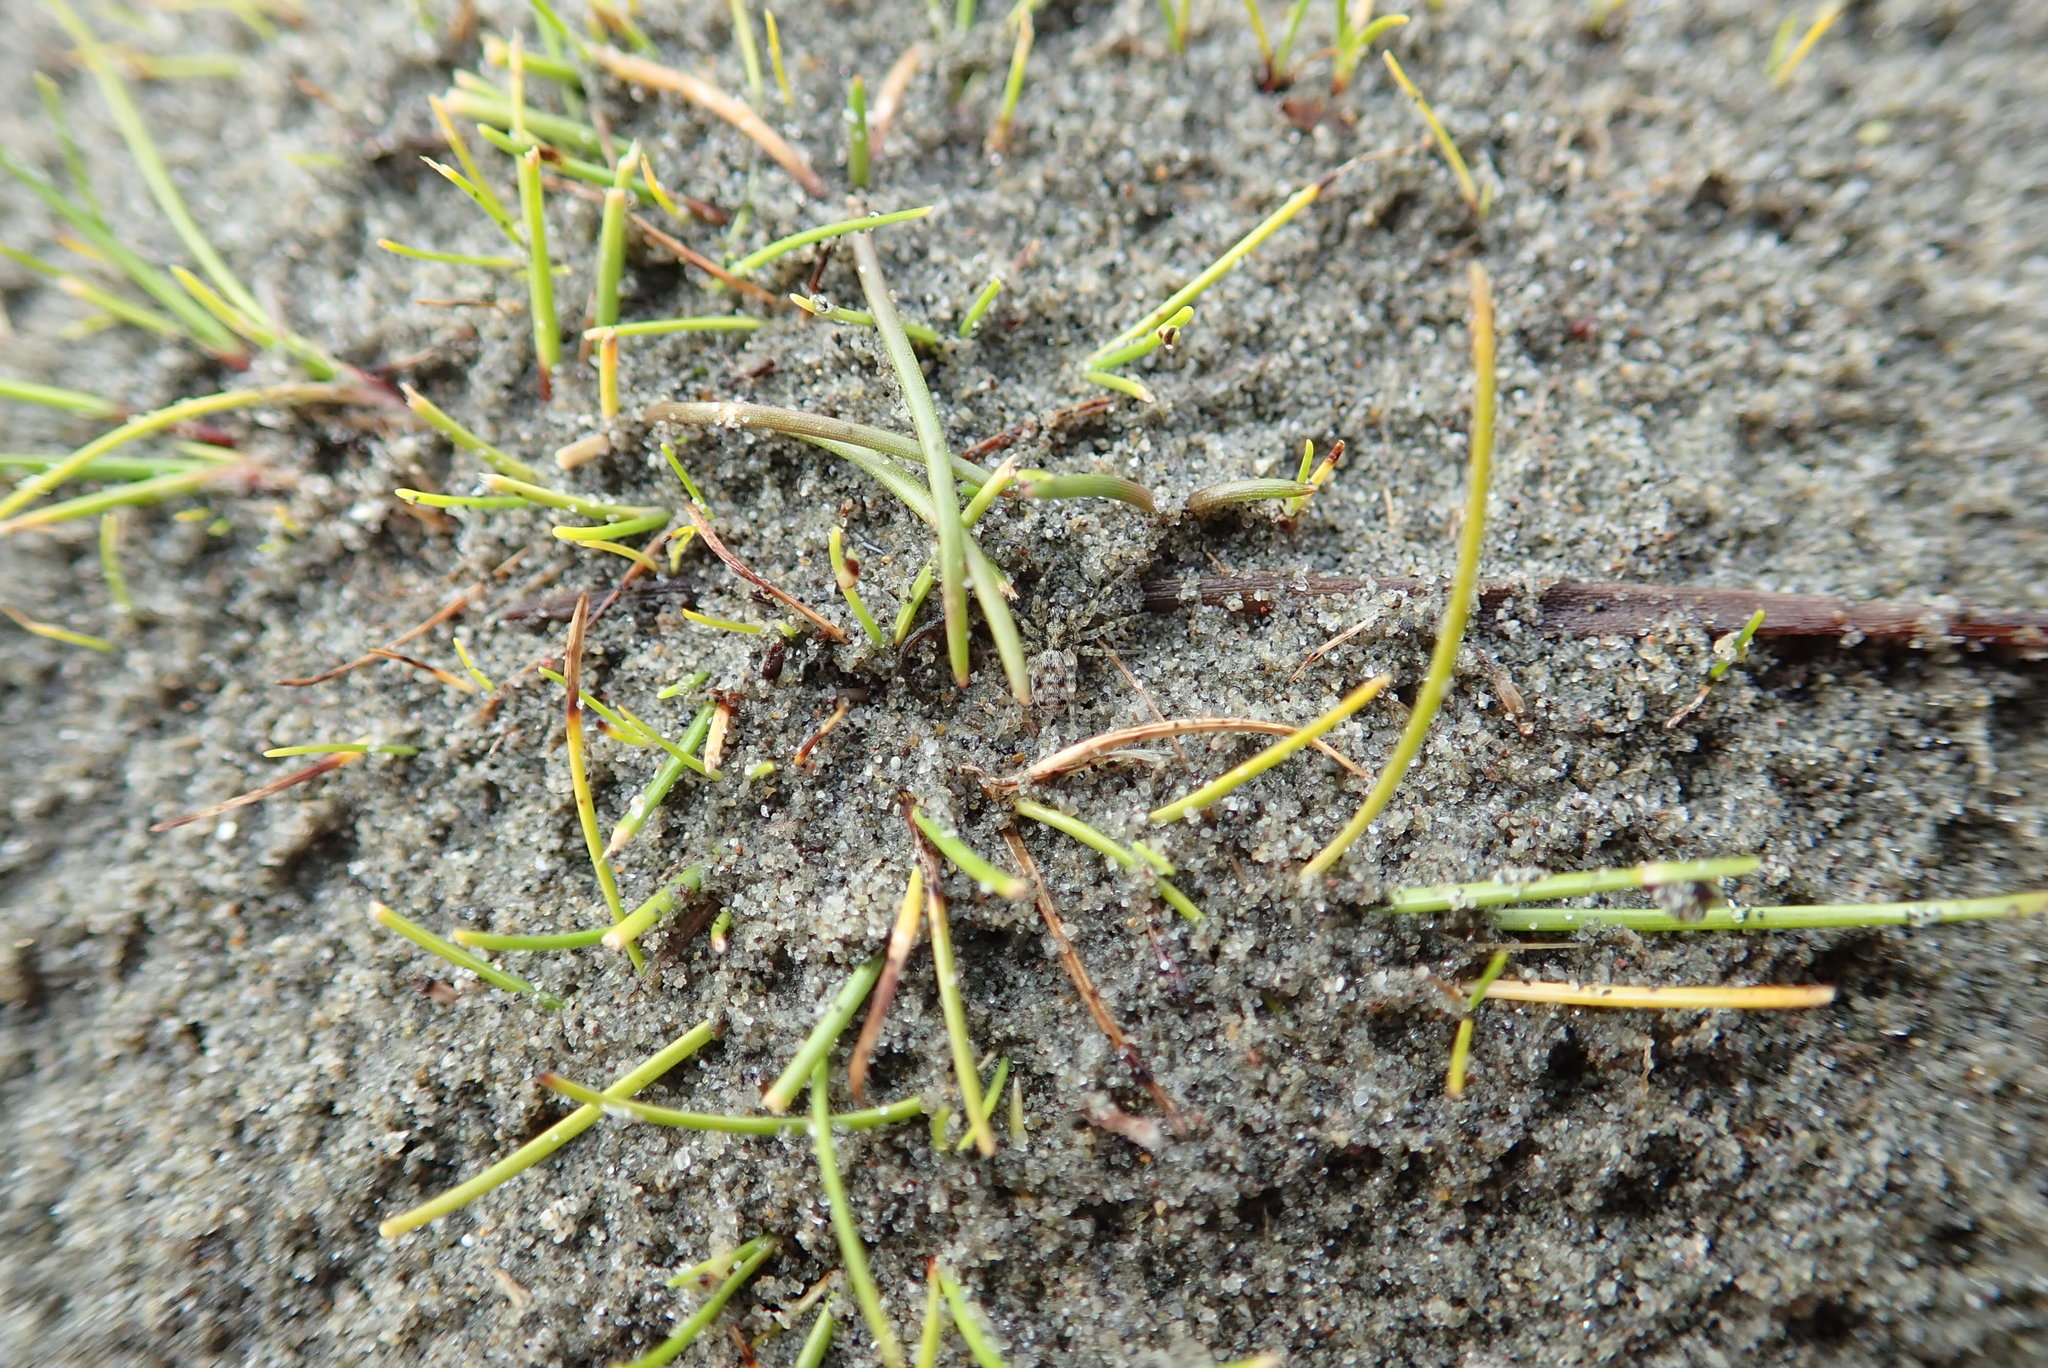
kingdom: Animalia
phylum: Arthropoda
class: Arachnida
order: Araneae
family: Lycosidae
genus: Anoteropsis
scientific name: Anoteropsis litoralis
